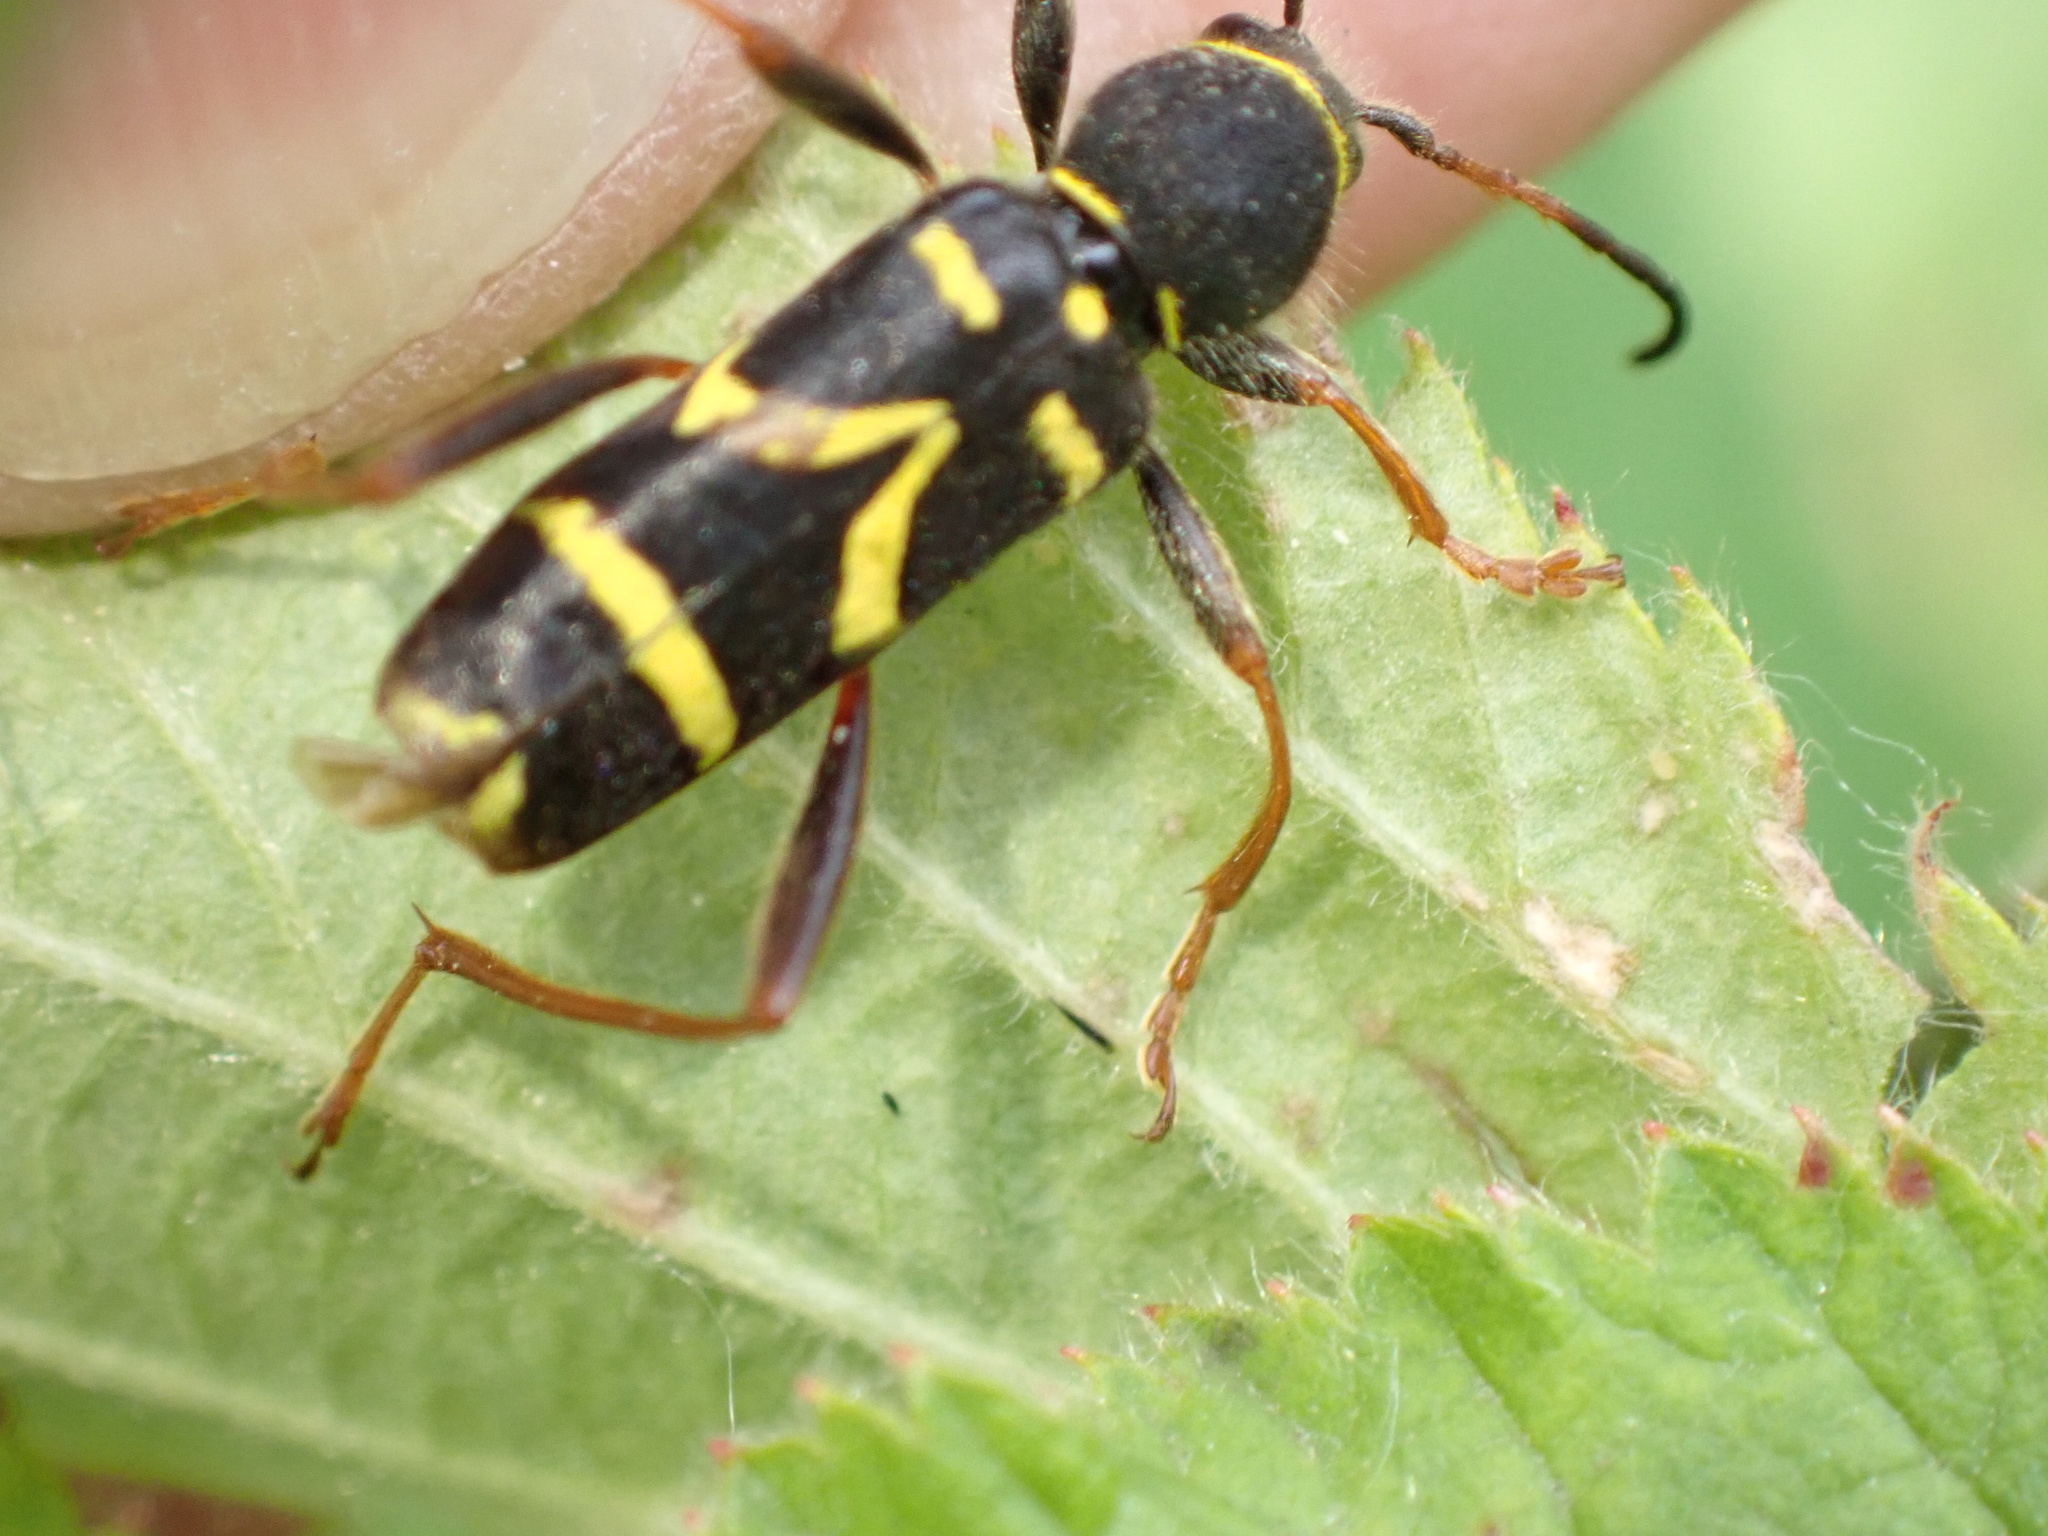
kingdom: Animalia
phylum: Arthropoda
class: Insecta
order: Coleoptera
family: Cerambycidae
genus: Clytus
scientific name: Clytus arietis
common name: Wasp beetle
